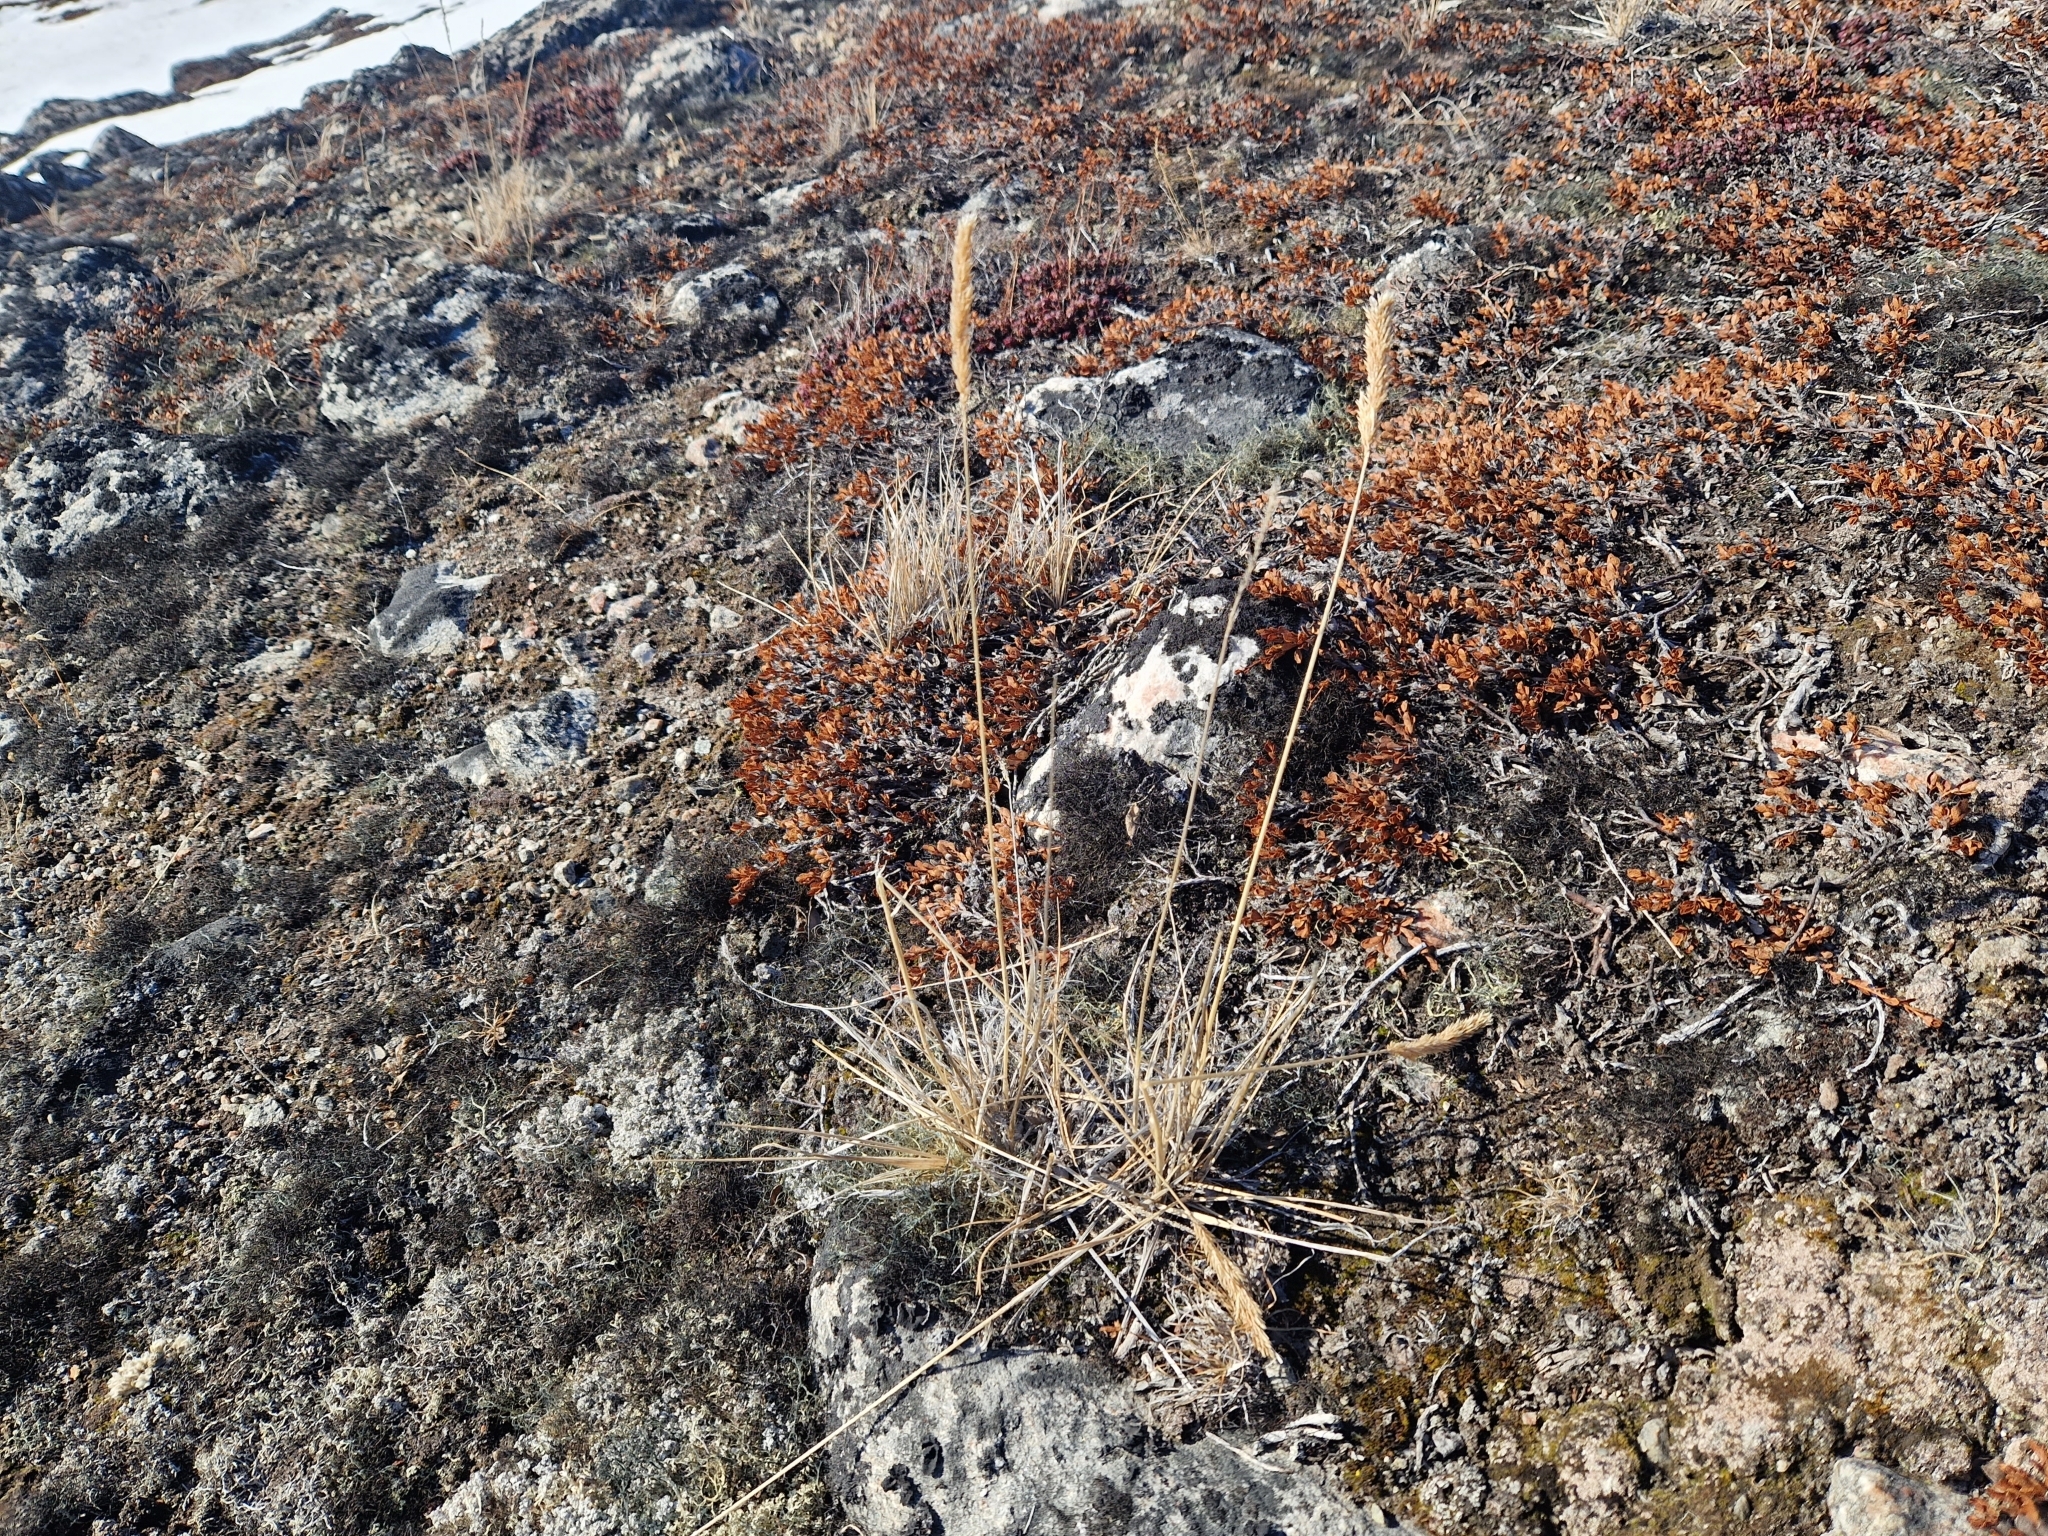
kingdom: Plantae
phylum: Tracheophyta
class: Liliopsida
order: Poales
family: Poaceae
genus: Koeleria
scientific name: Koeleria spicata
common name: Mountain trisetum
